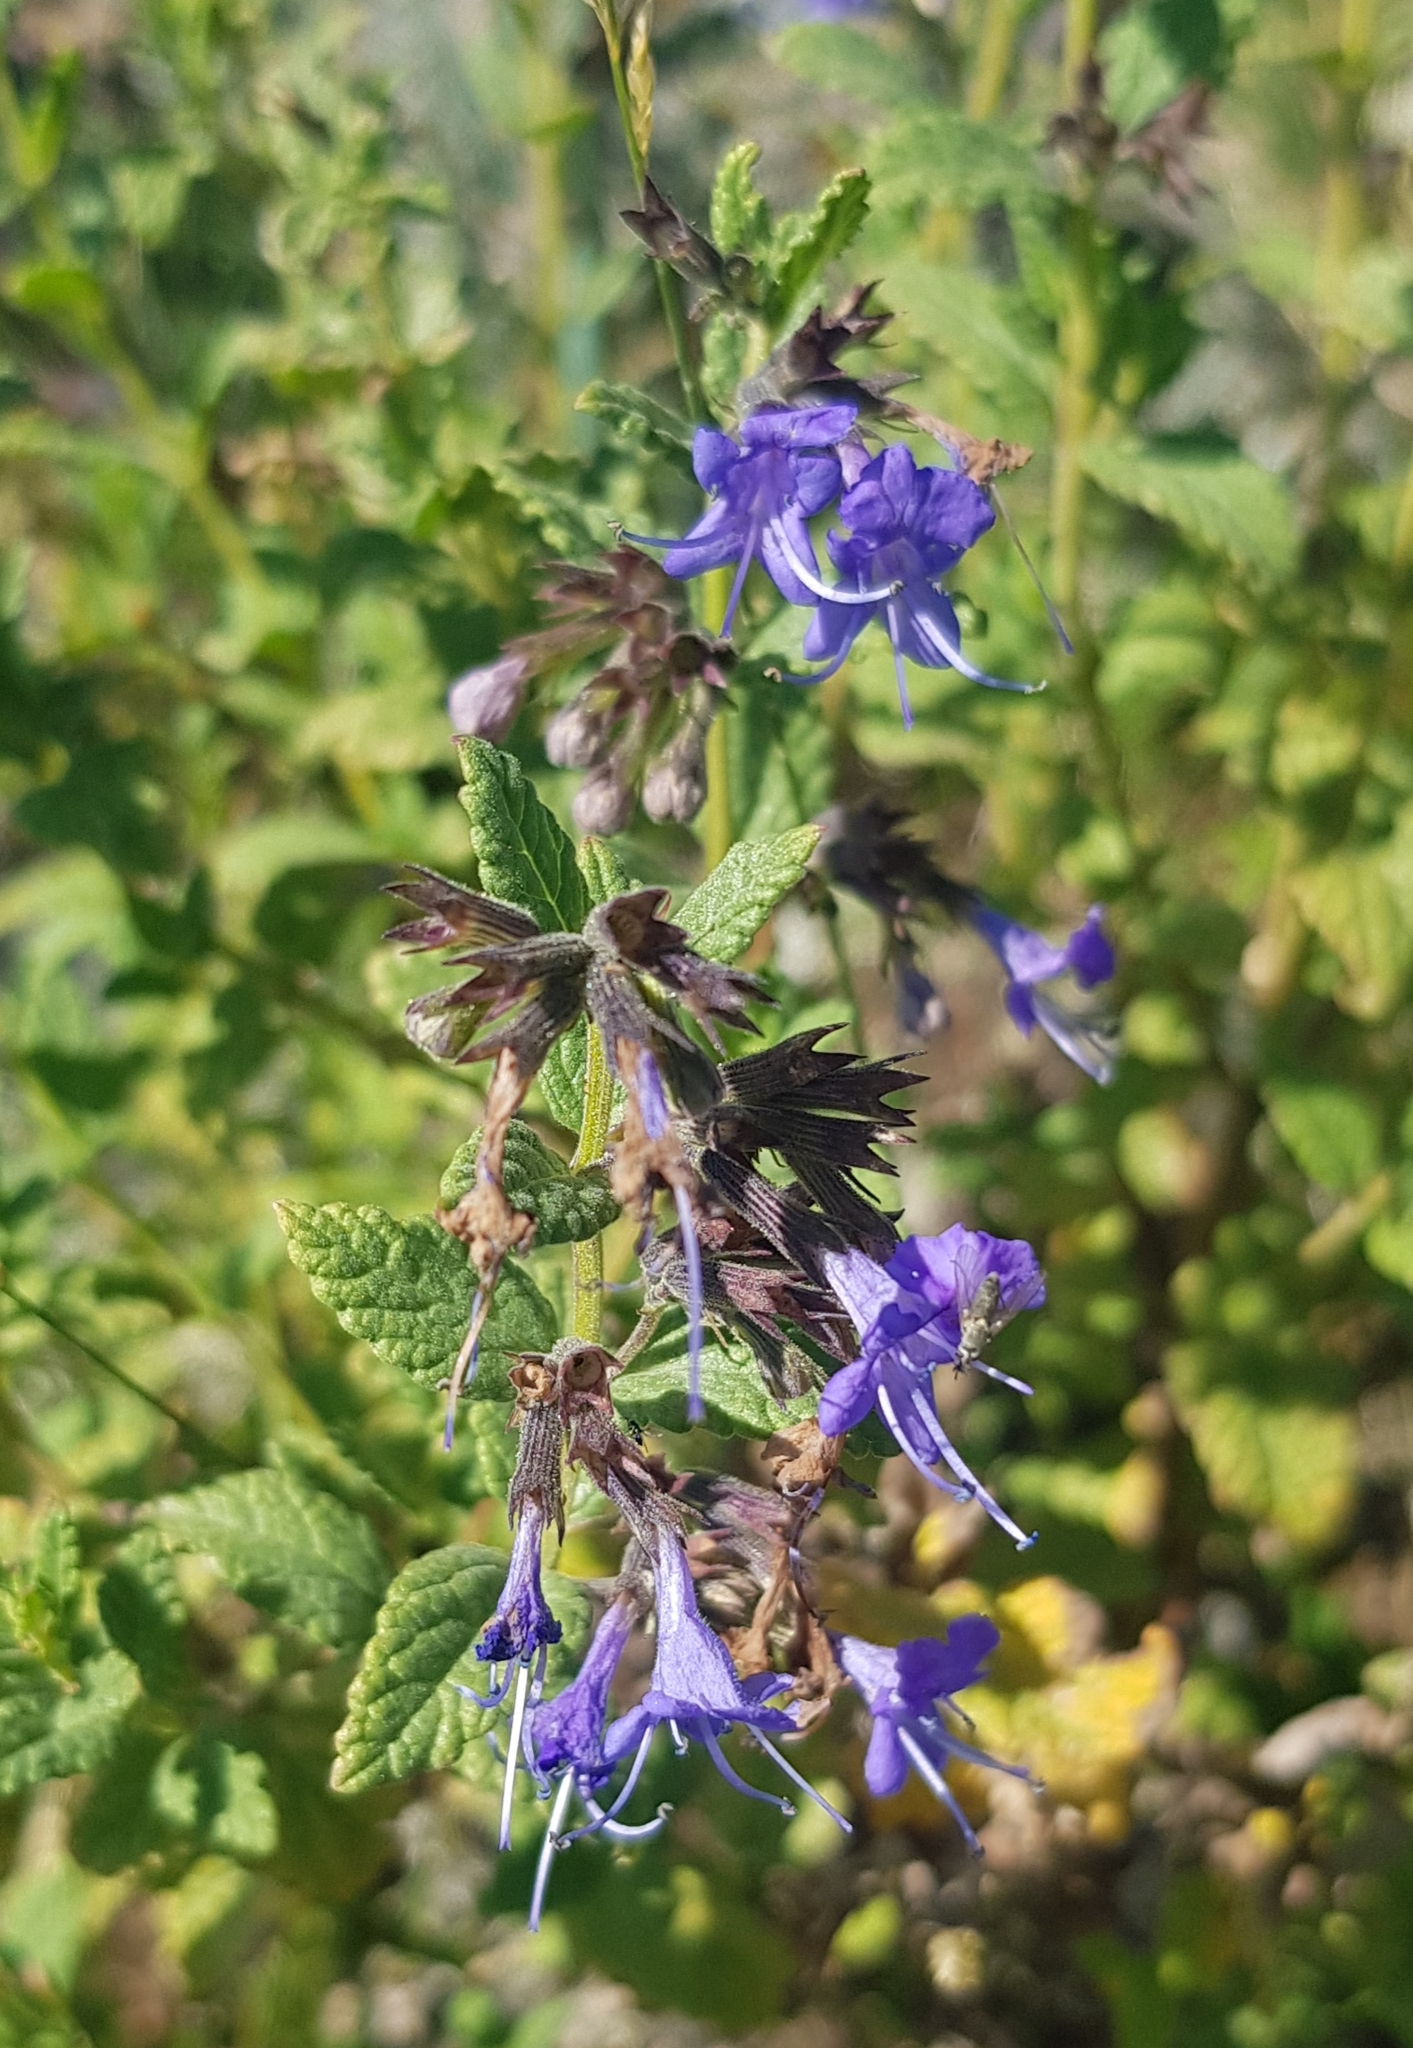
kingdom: Plantae
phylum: Tracheophyta
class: Magnoliopsida
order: Lamiales
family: Lamiaceae
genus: Nepeta
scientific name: Nepeta lophanthus
